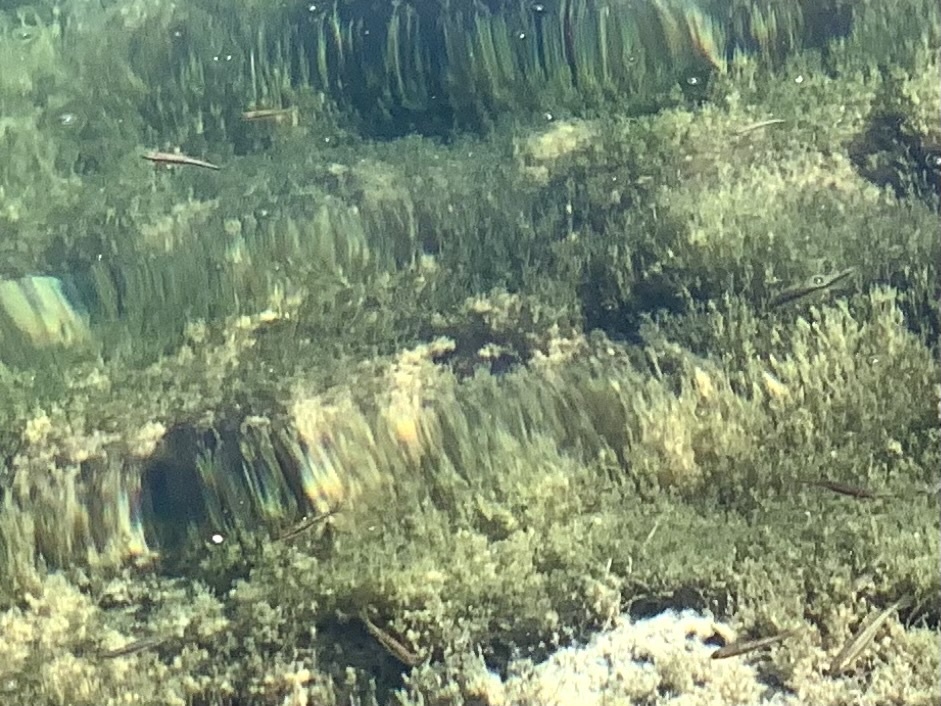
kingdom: Animalia
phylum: Chordata
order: Cypriniformes
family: Cyprinidae
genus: Phoxinus
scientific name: Phoxinus phoxinus
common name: Minnow
